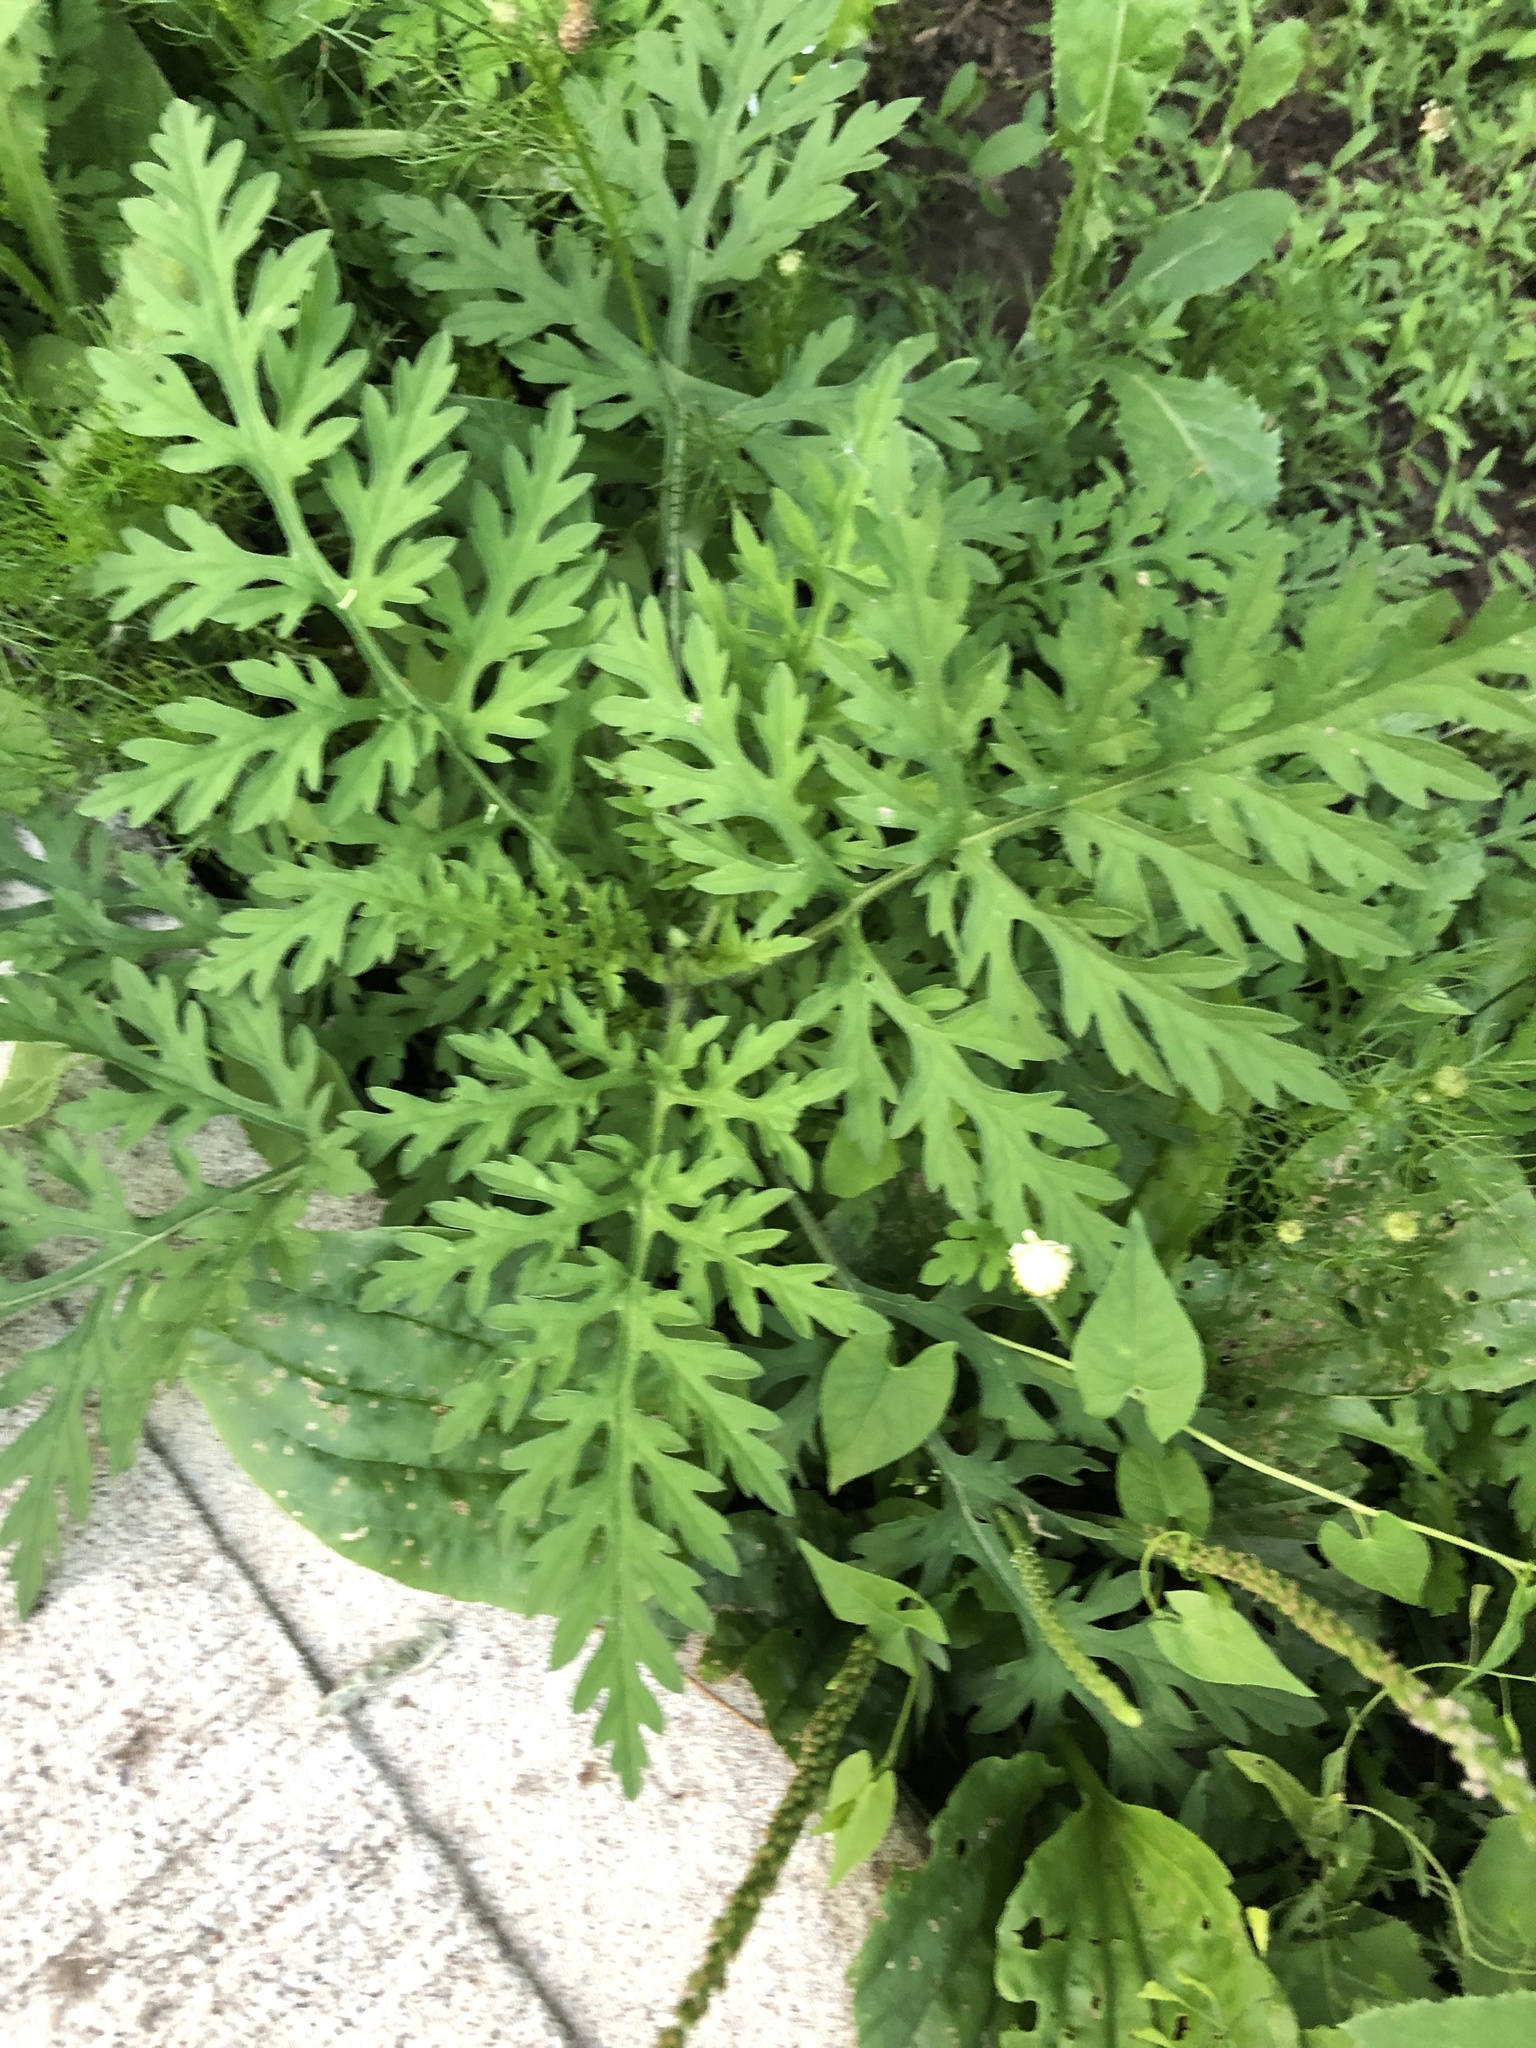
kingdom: Plantae
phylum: Tracheophyta
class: Magnoliopsida
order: Asterales
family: Asteraceae
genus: Ambrosia
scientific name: Ambrosia artemisiifolia
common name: Annual ragweed
